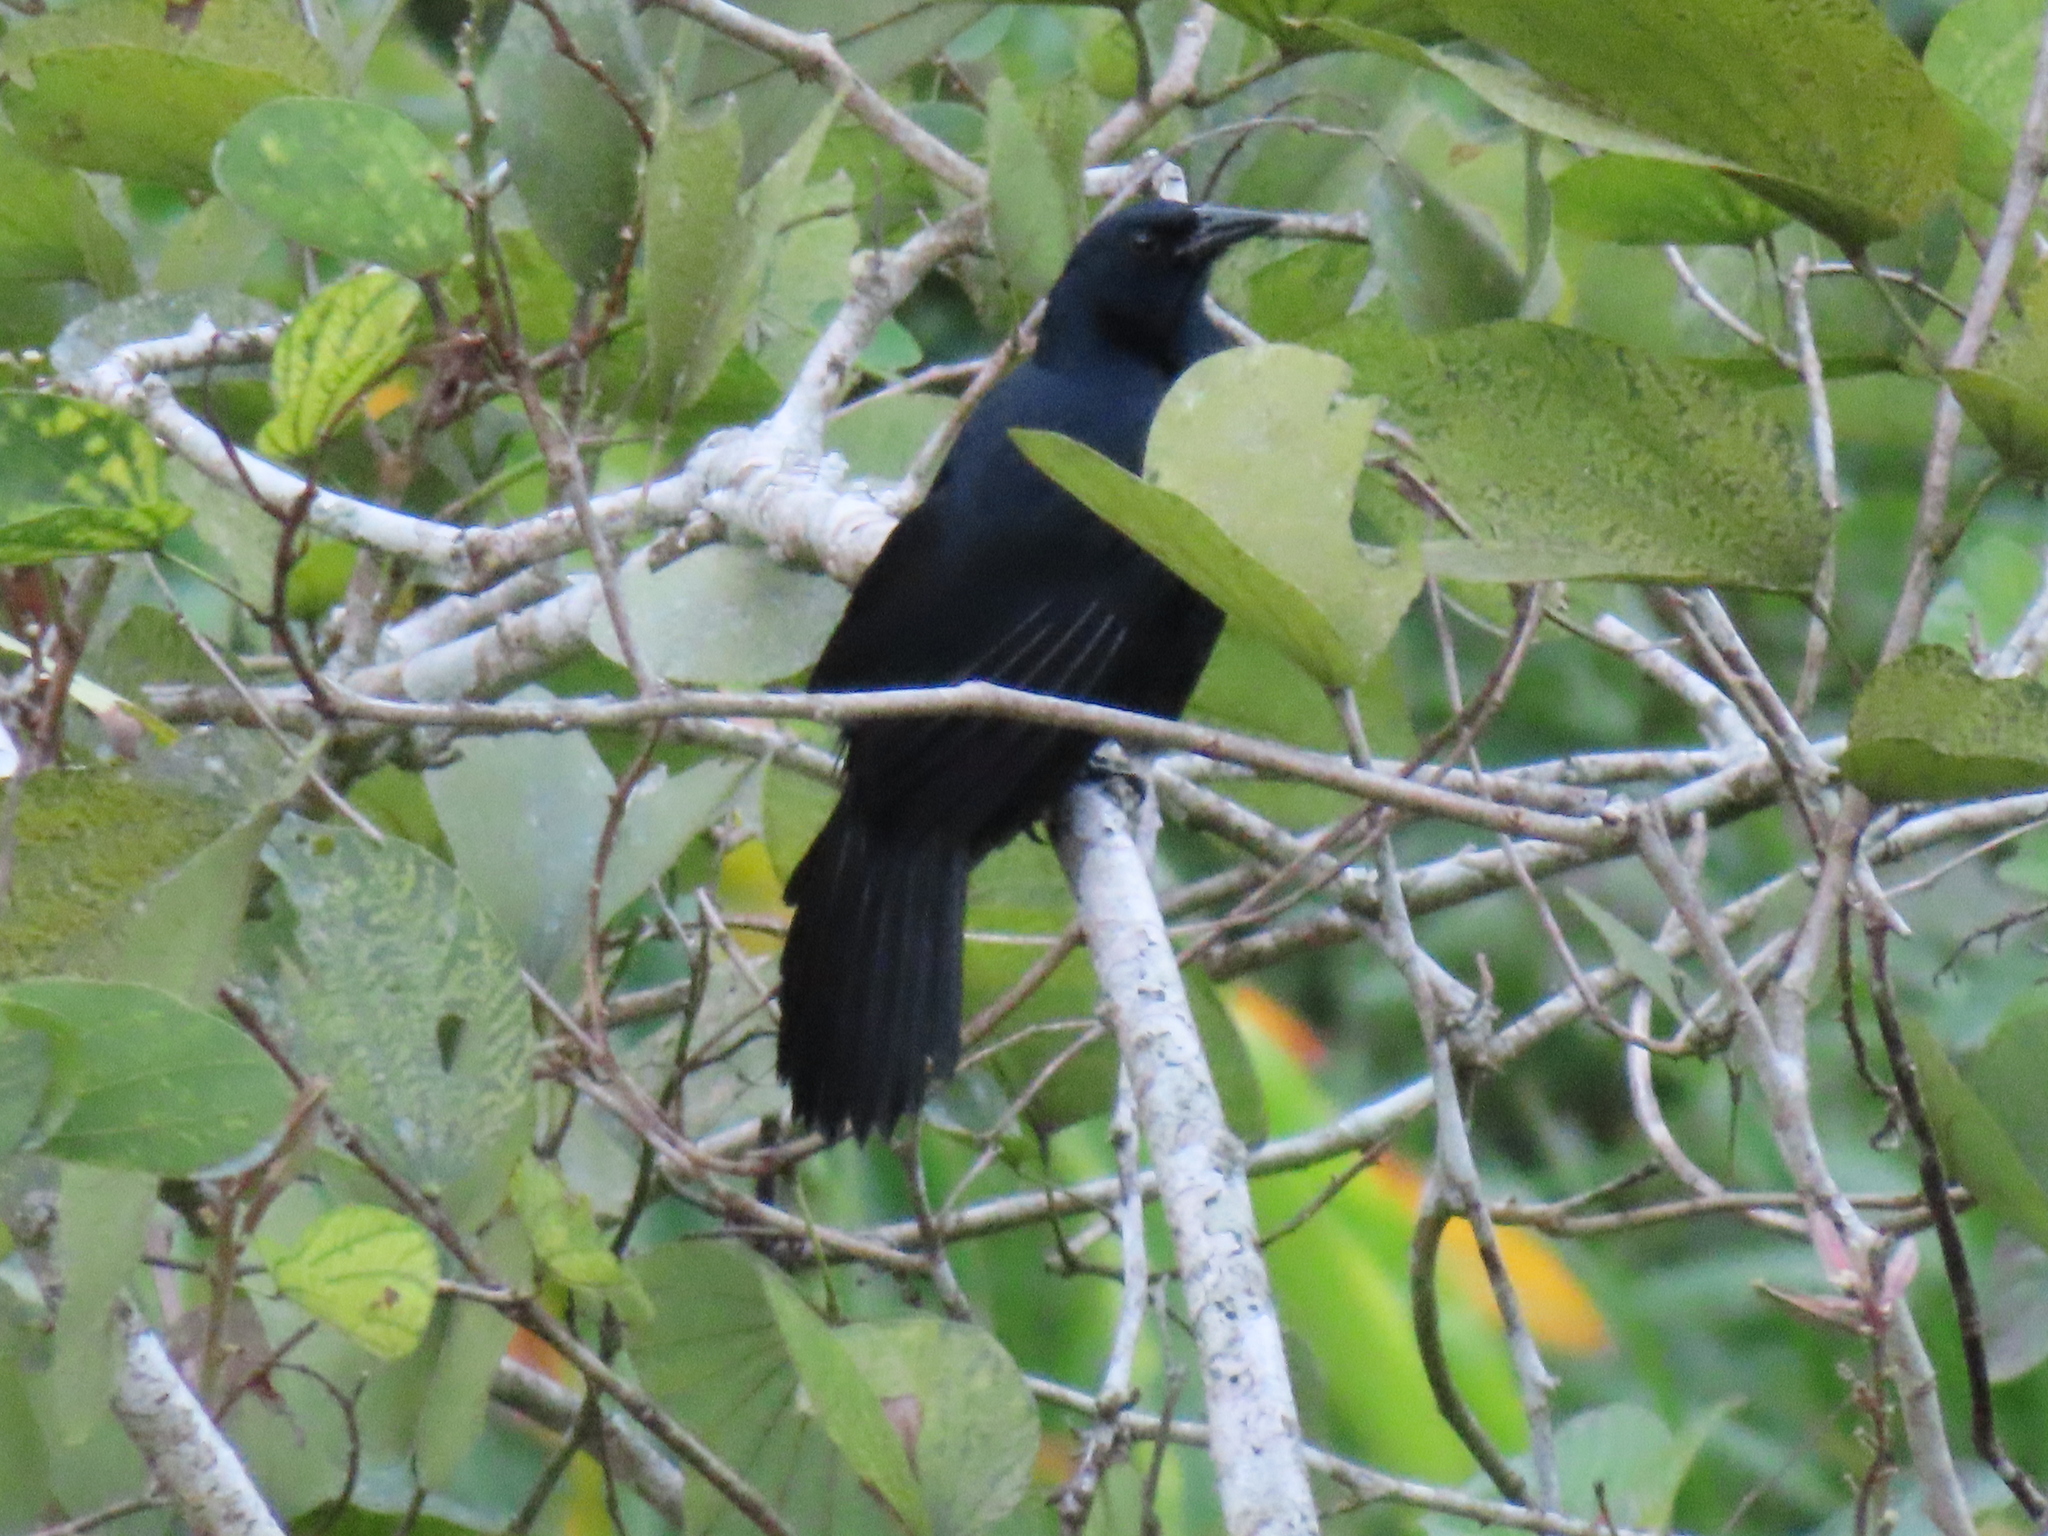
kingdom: Animalia
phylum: Chordata
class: Aves
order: Passeriformes
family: Icteridae
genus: Dives
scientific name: Dives dives
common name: Melodious blackbird
